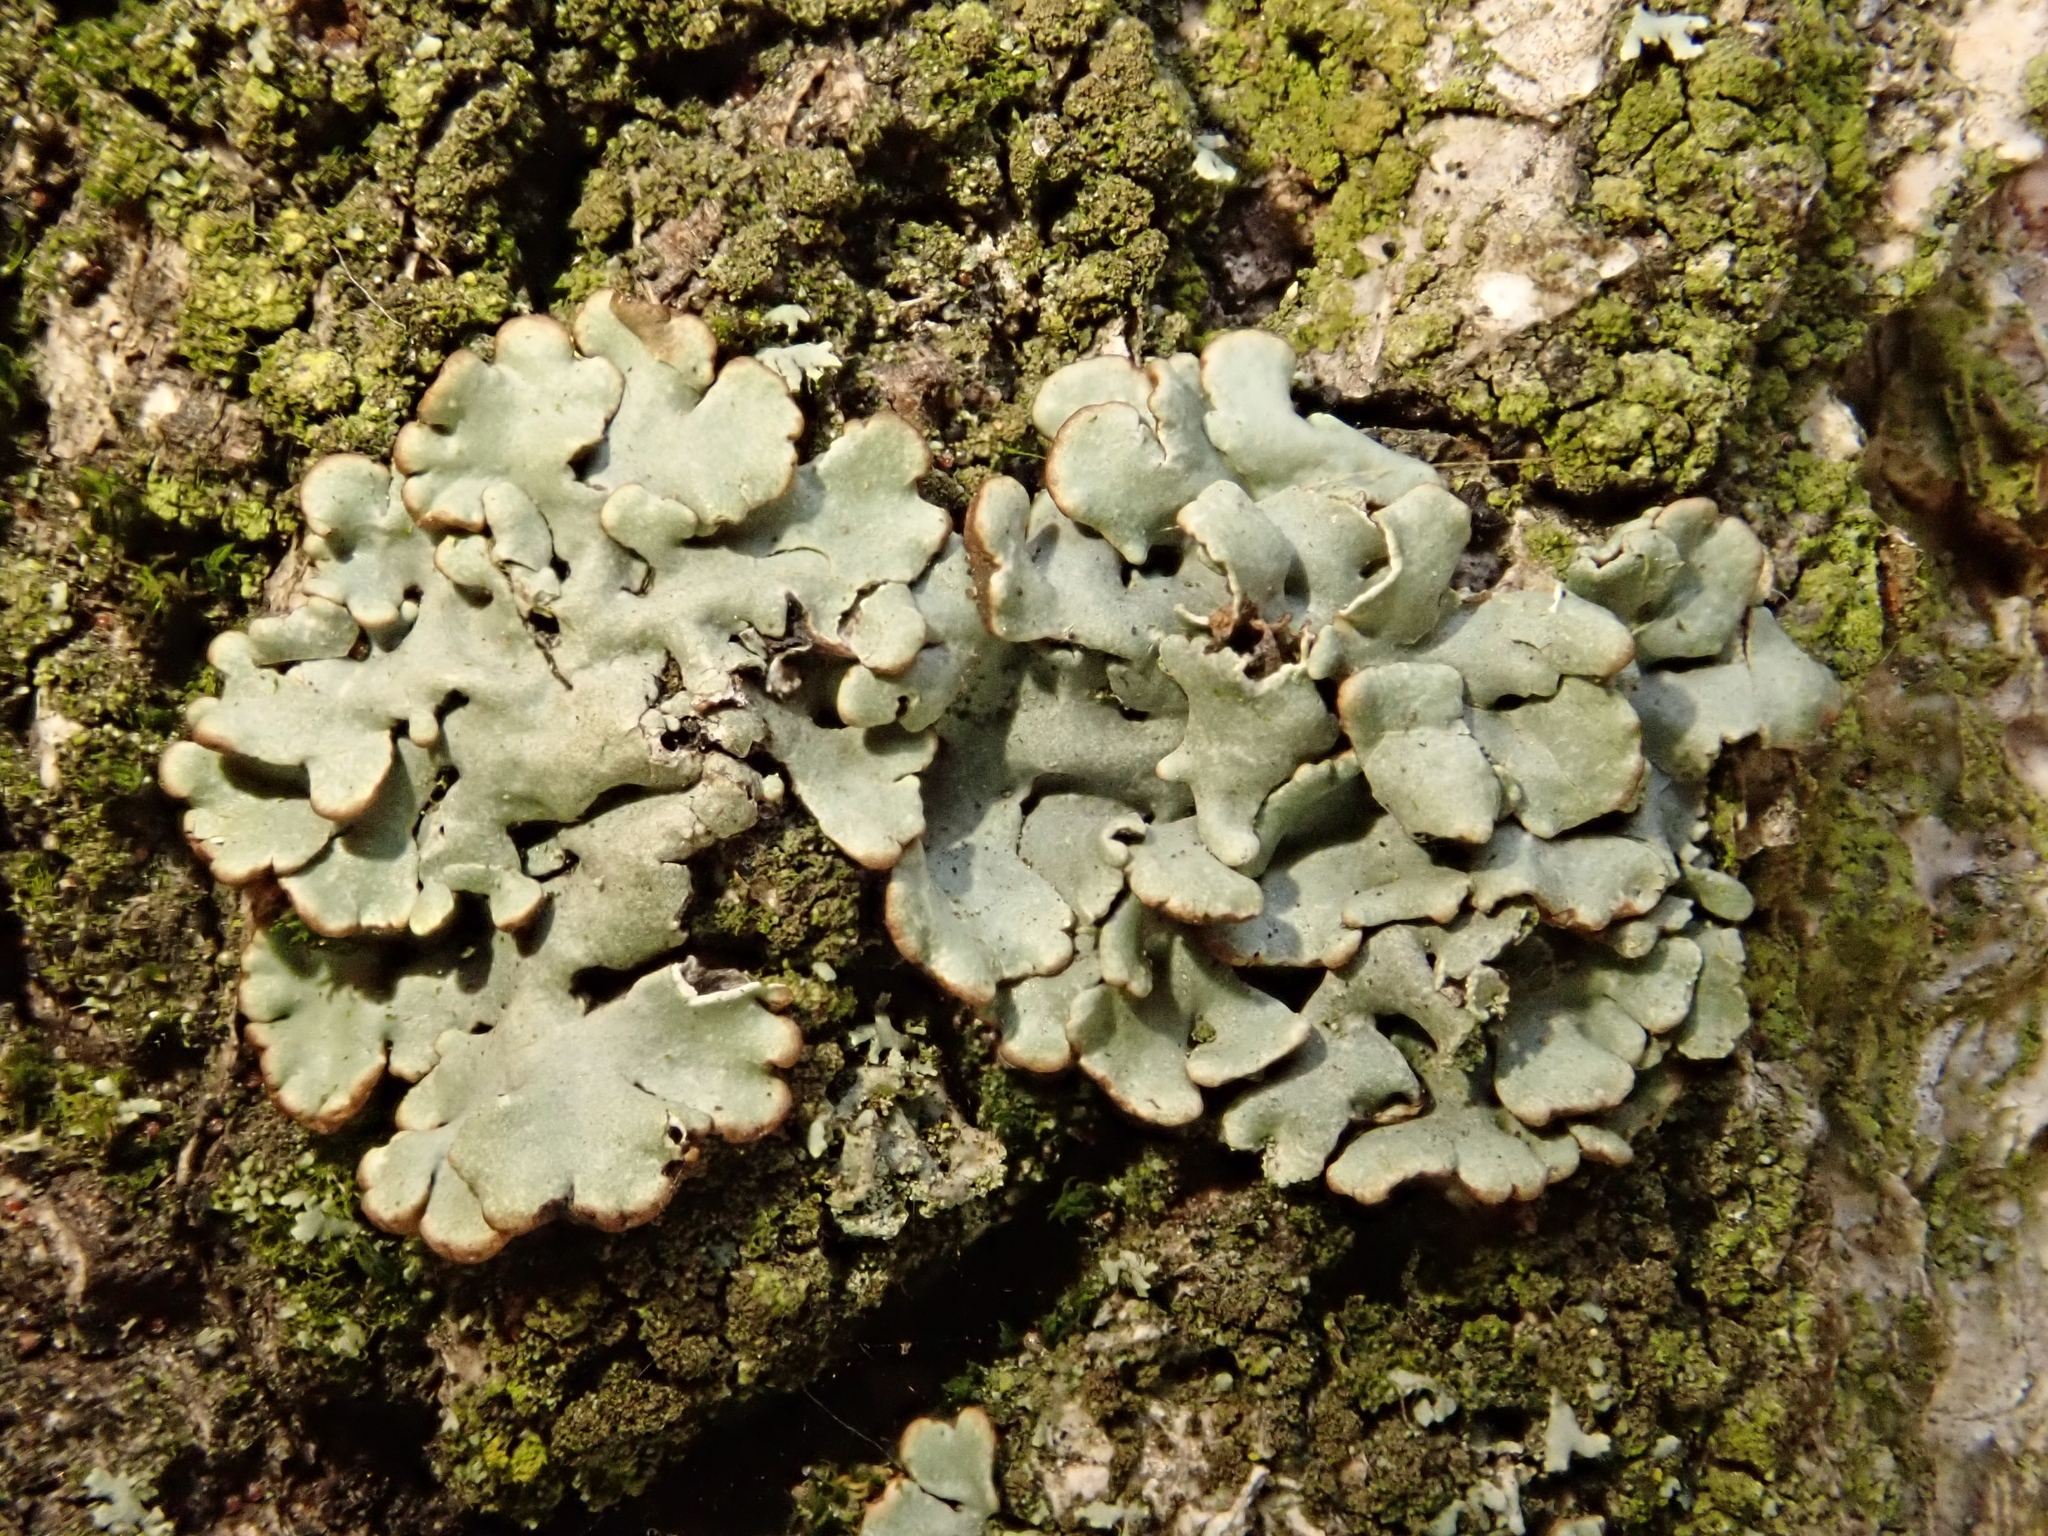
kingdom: Fungi
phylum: Ascomycota
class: Lecanoromycetes
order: Lecanorales
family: Parmeliaceae
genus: Hypogymnia
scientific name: Hypogymnia physodes
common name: Dark crottle
